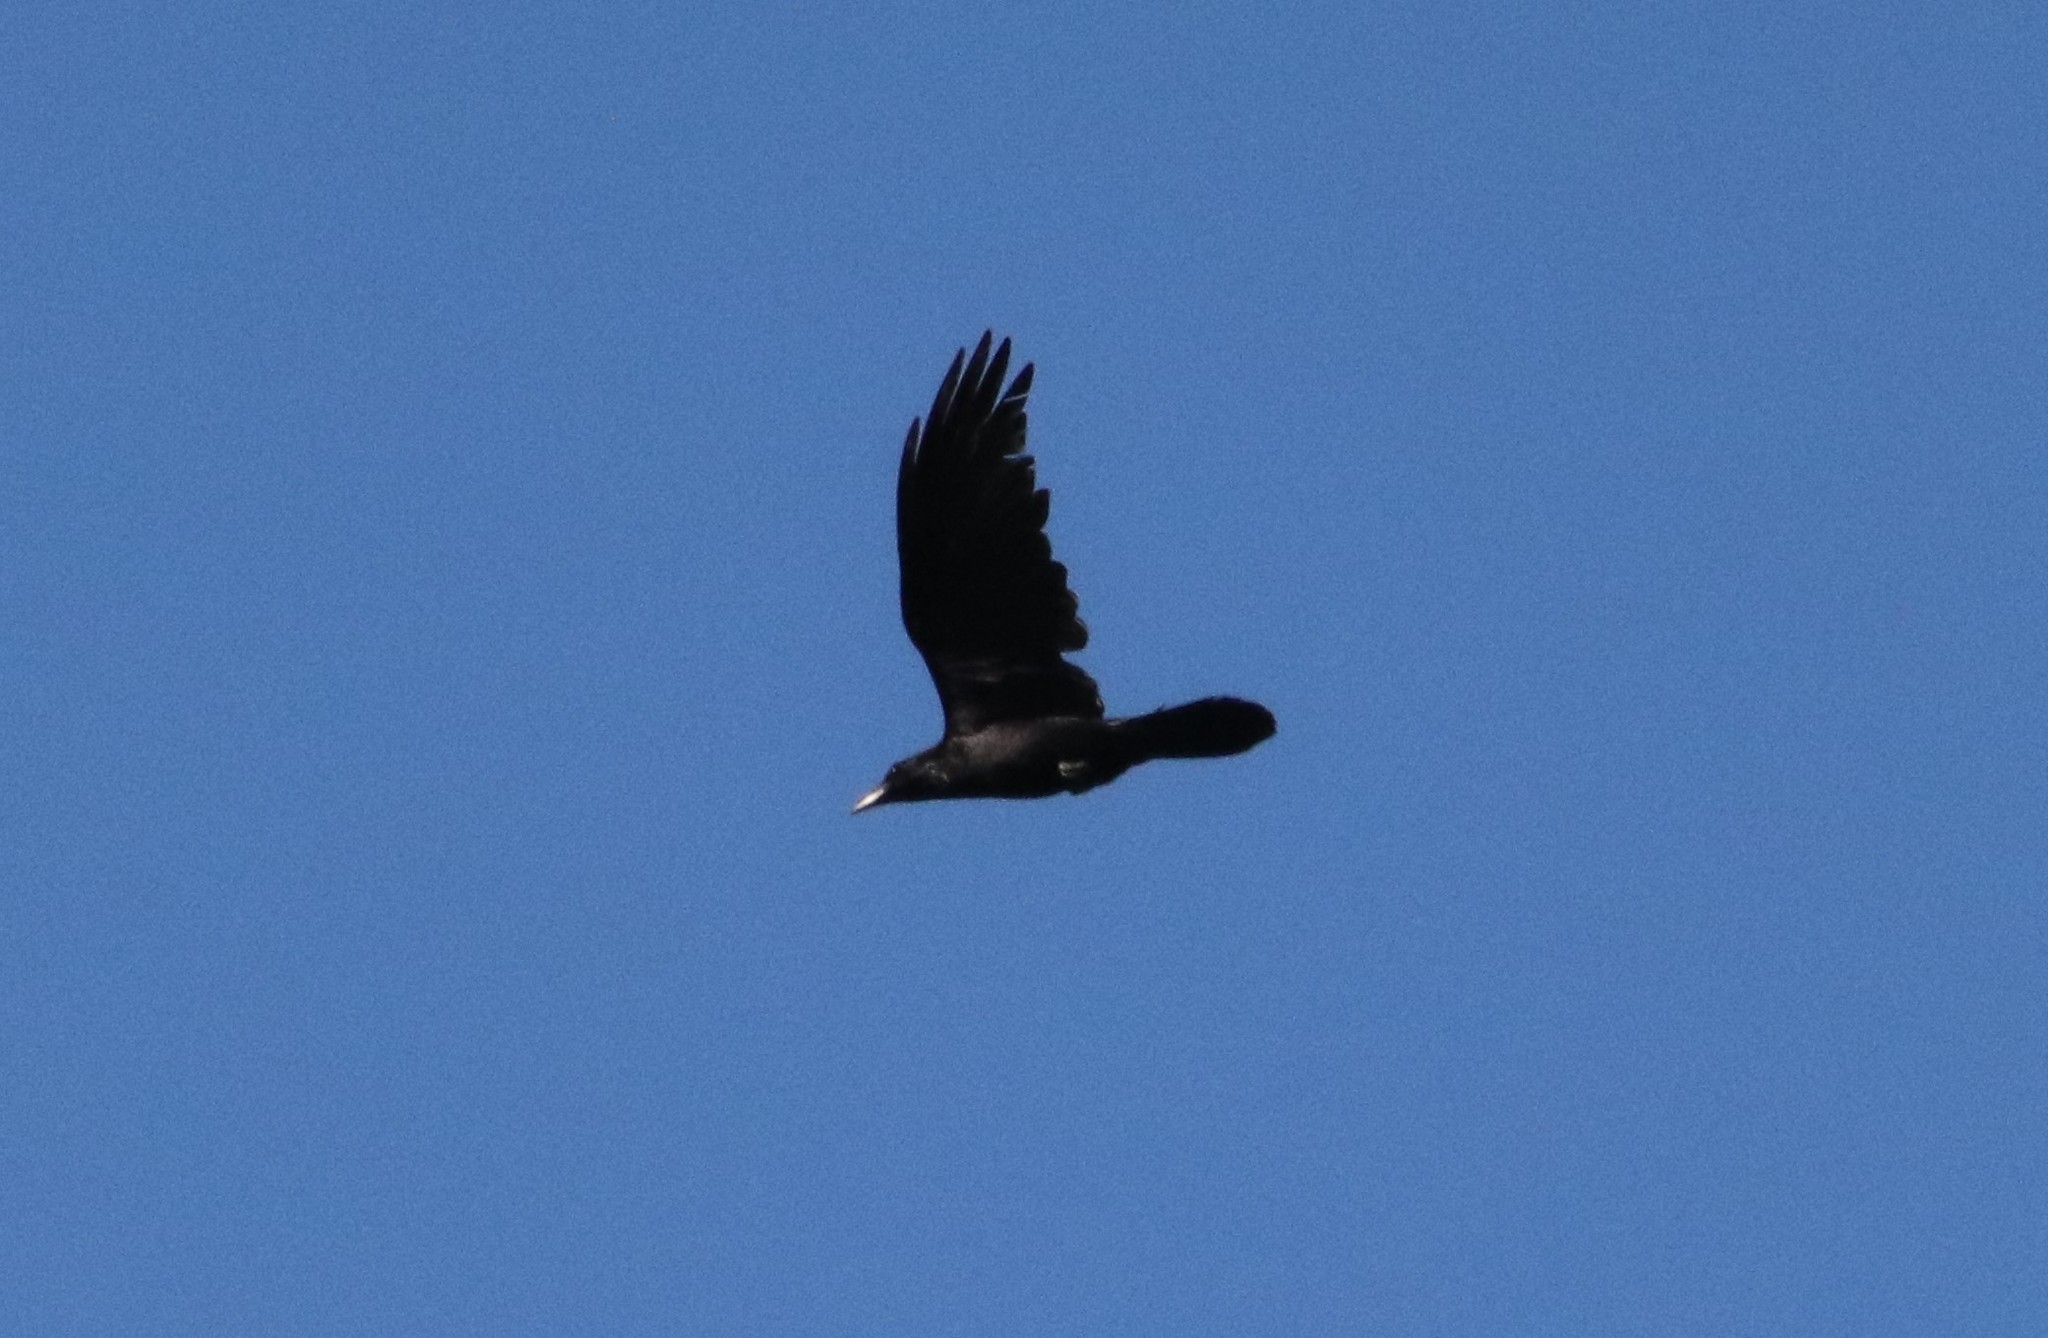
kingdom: Animalia
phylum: Chordata
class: Aves
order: Passeriformes
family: Corvidae
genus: Corvus
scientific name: Corvus corax
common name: Common raven
